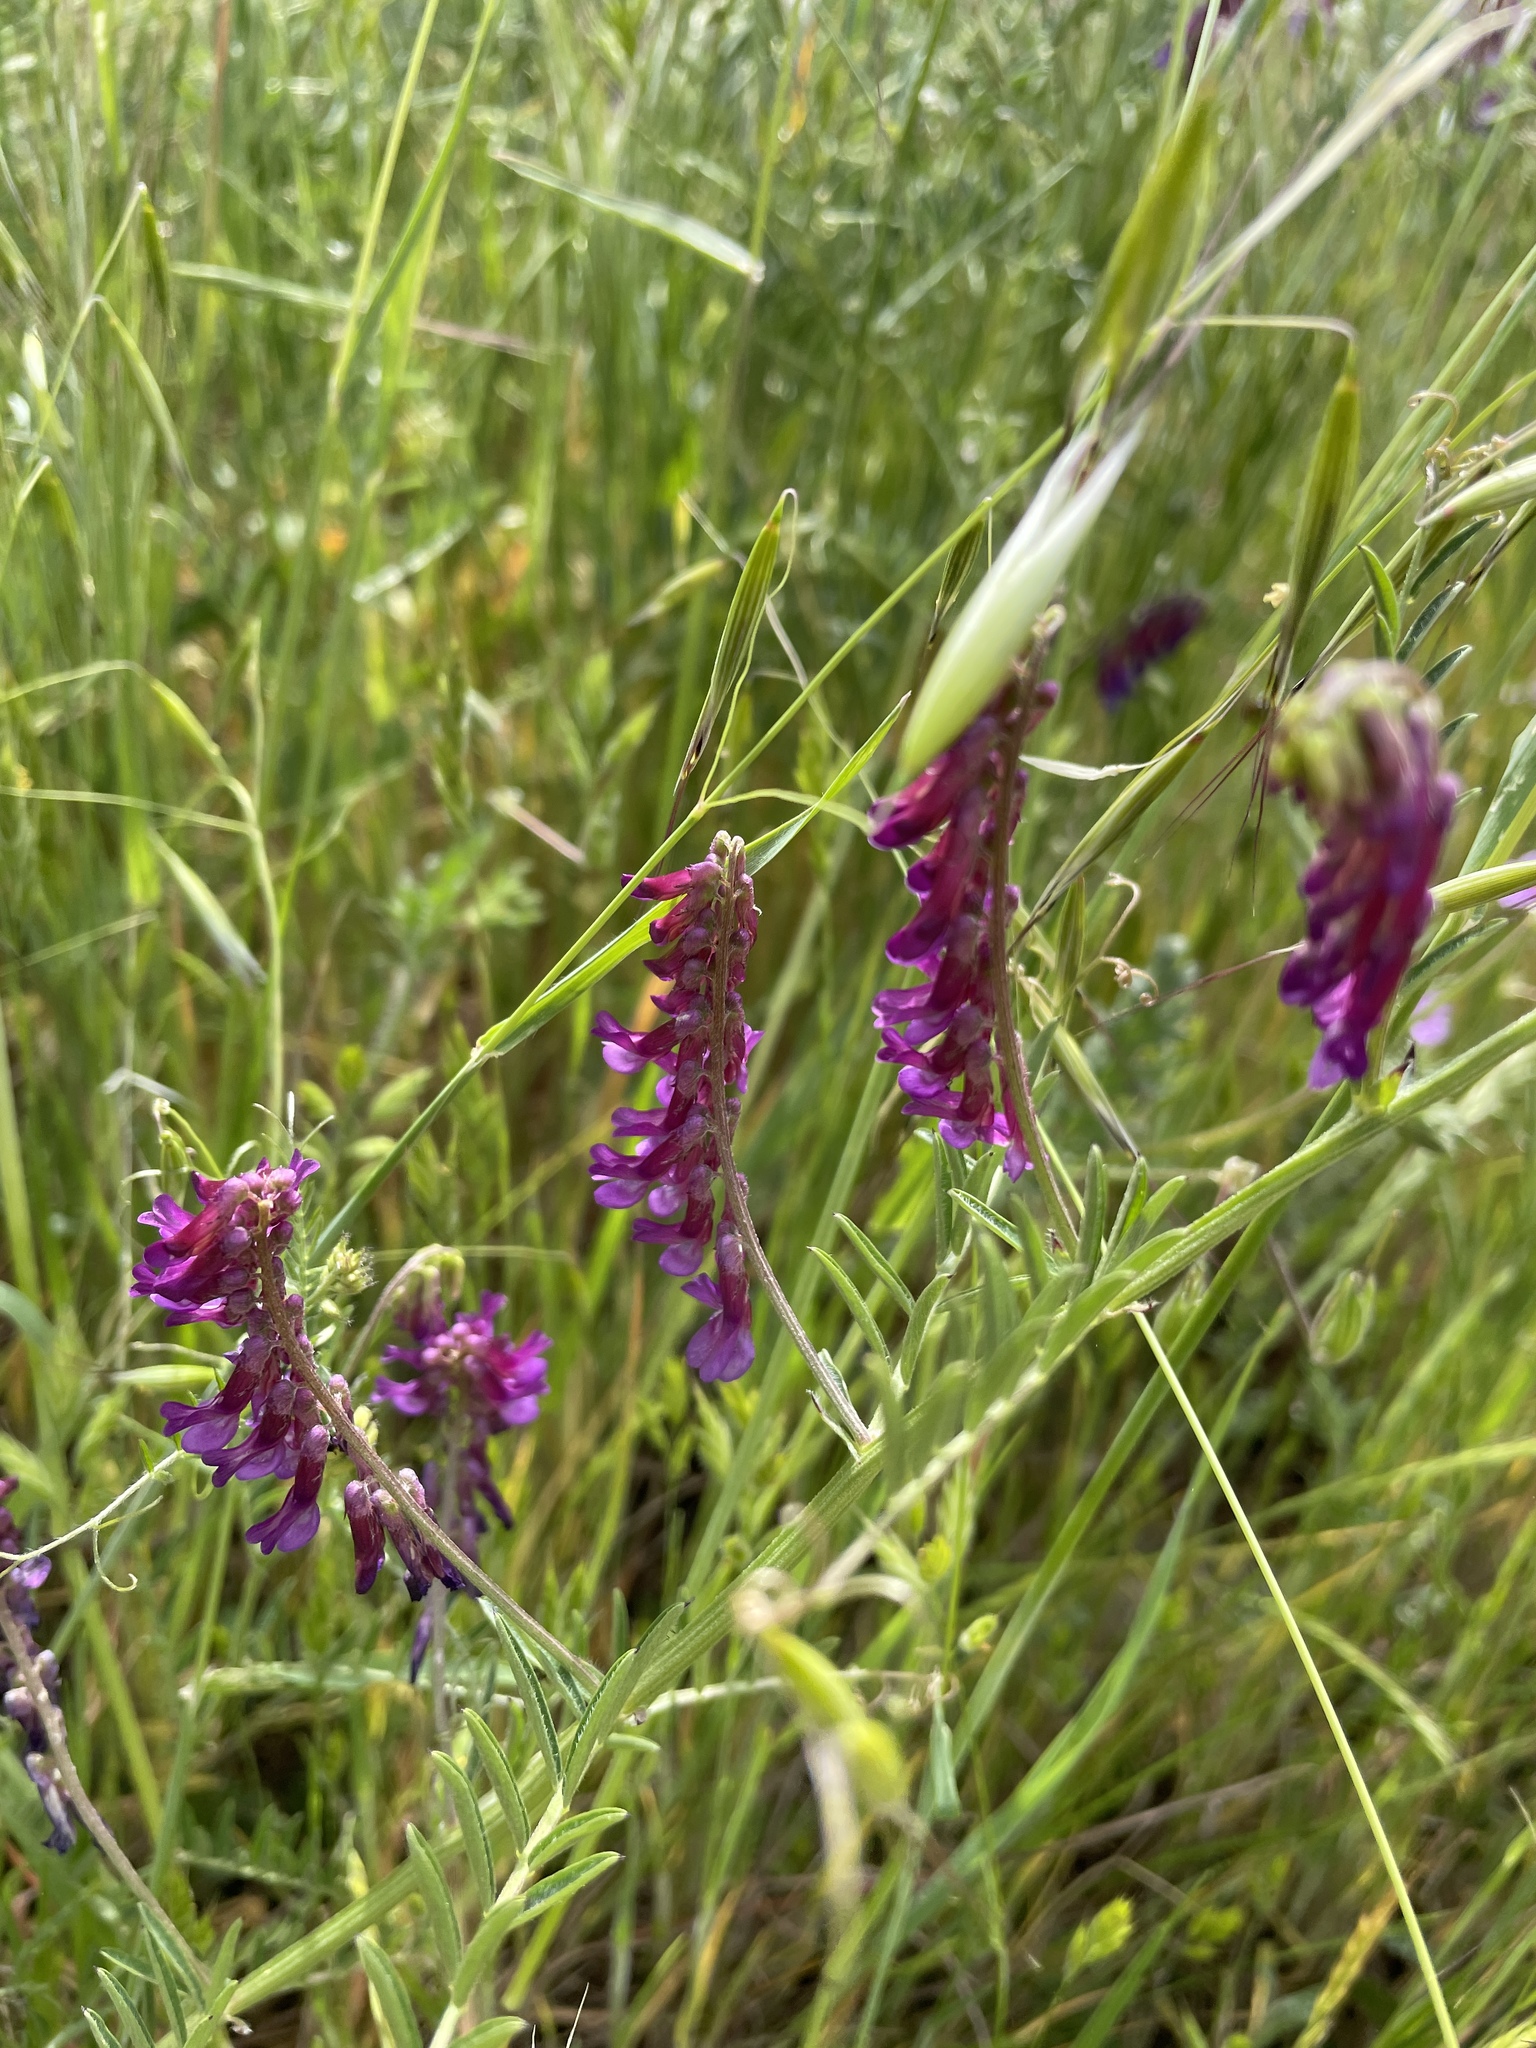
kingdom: Plantae
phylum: Tracheophyta
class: Magnoliopsida
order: Fabales
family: Fabaceae
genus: Vicia
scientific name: Vicia villosa
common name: Fodder vetch
